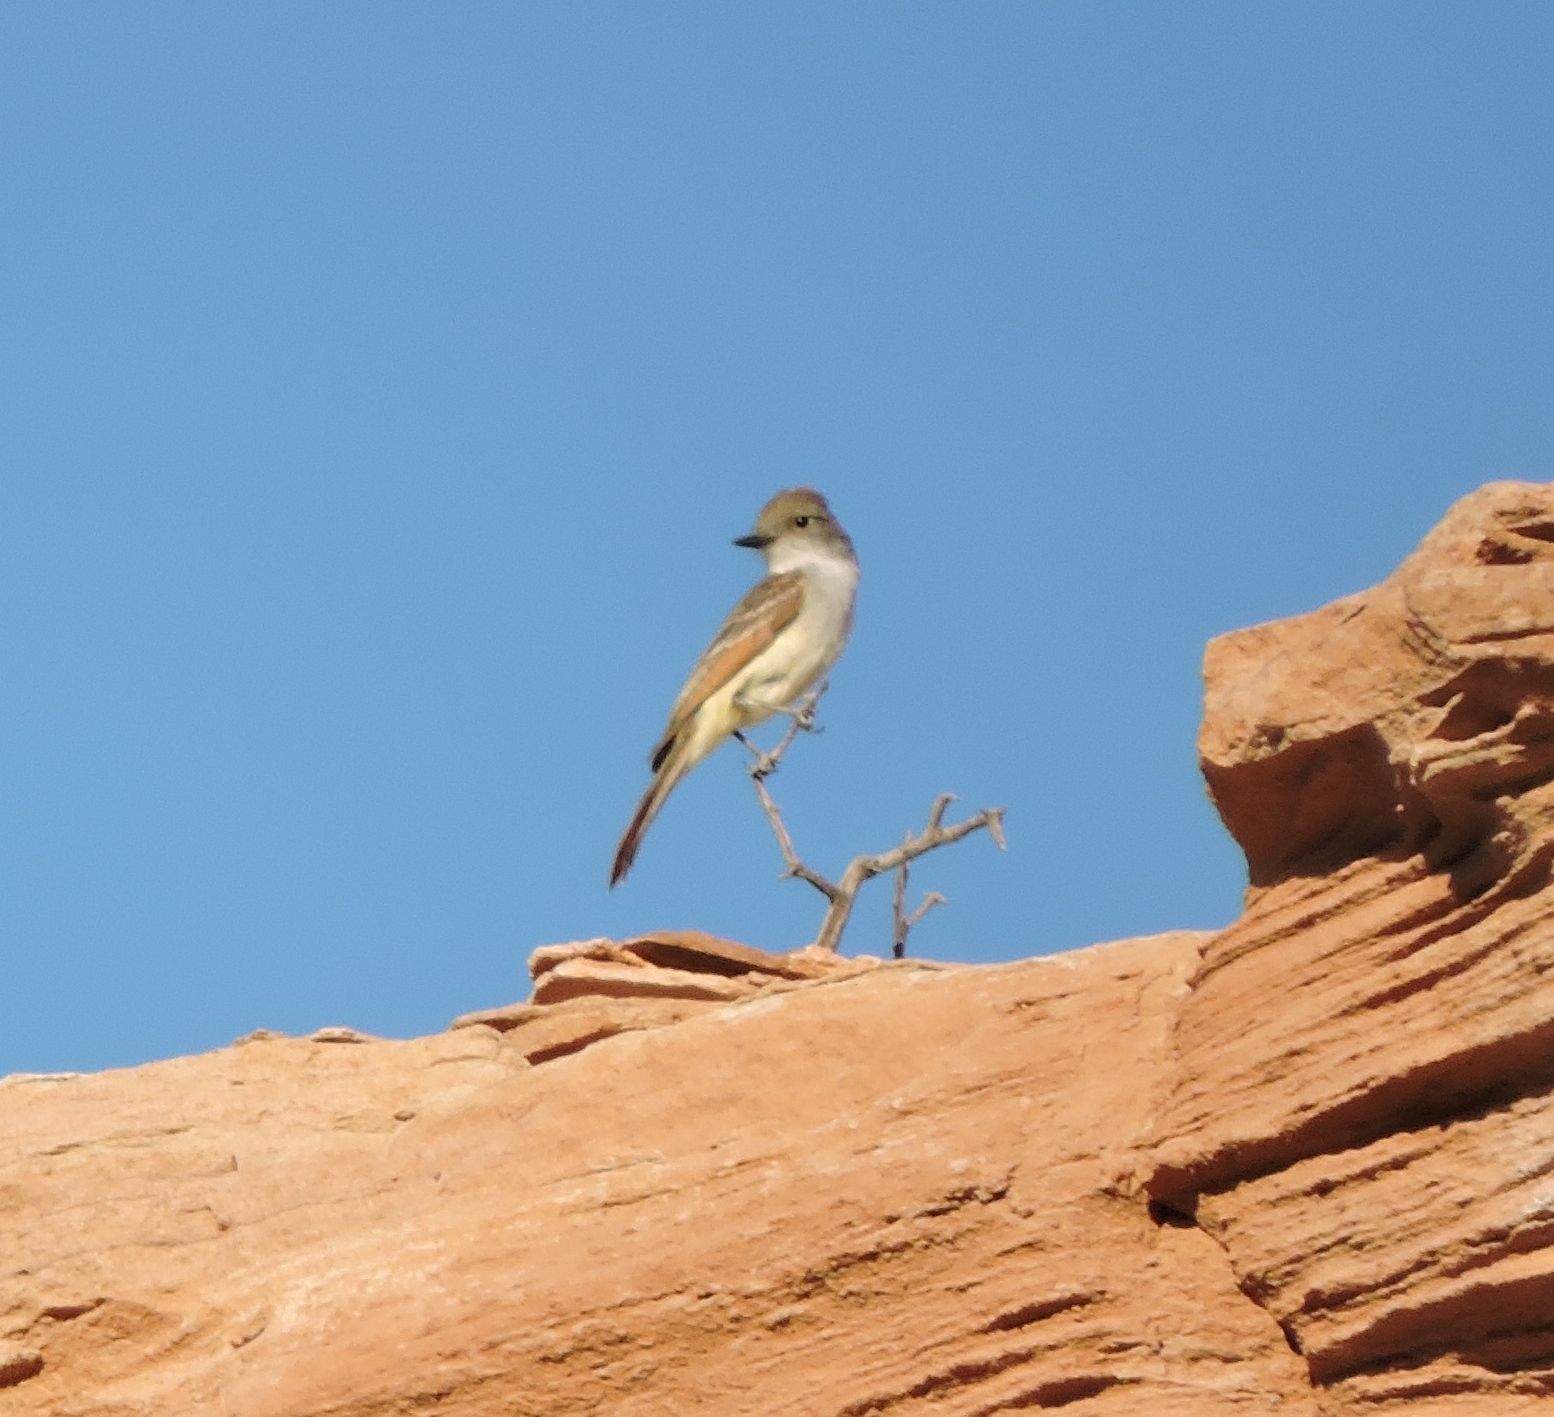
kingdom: Animalia
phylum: Chordata
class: Aves
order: Passeriformes
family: Tyrannidae
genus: Myiarchus
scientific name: Myiarchus cinerascens
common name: Ash-throated flycatcher
